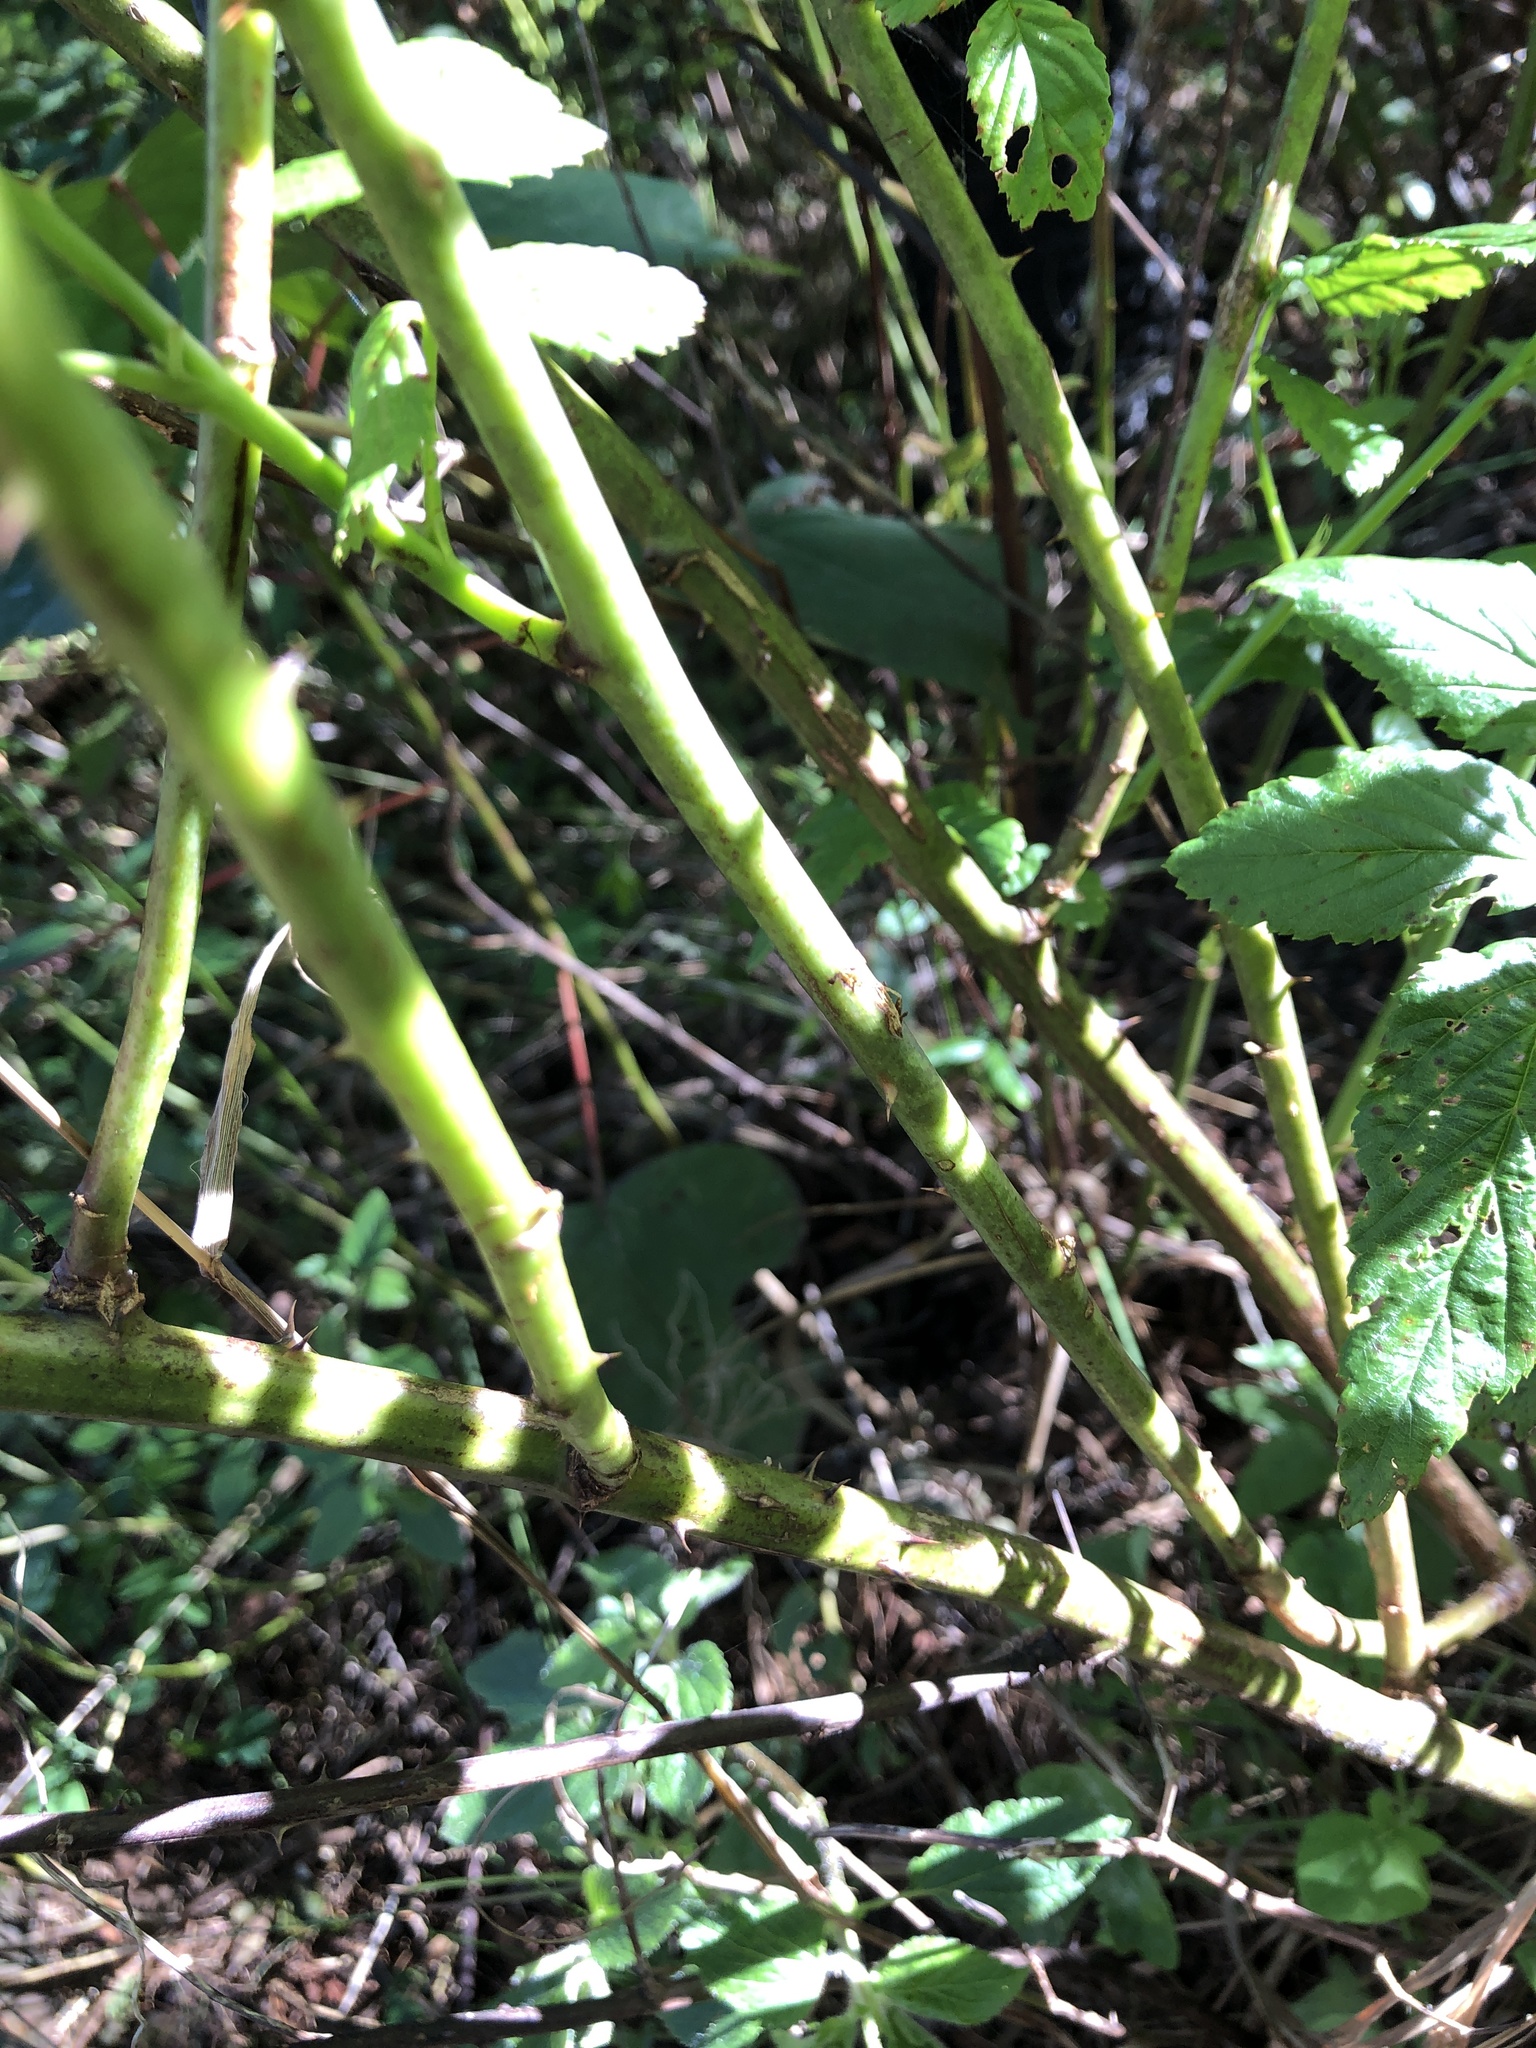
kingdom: Plantae
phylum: Tracheophyta
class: Magnoliopsida
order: Rosales
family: Rosaceae
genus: Rubus
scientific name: Rubus probus
